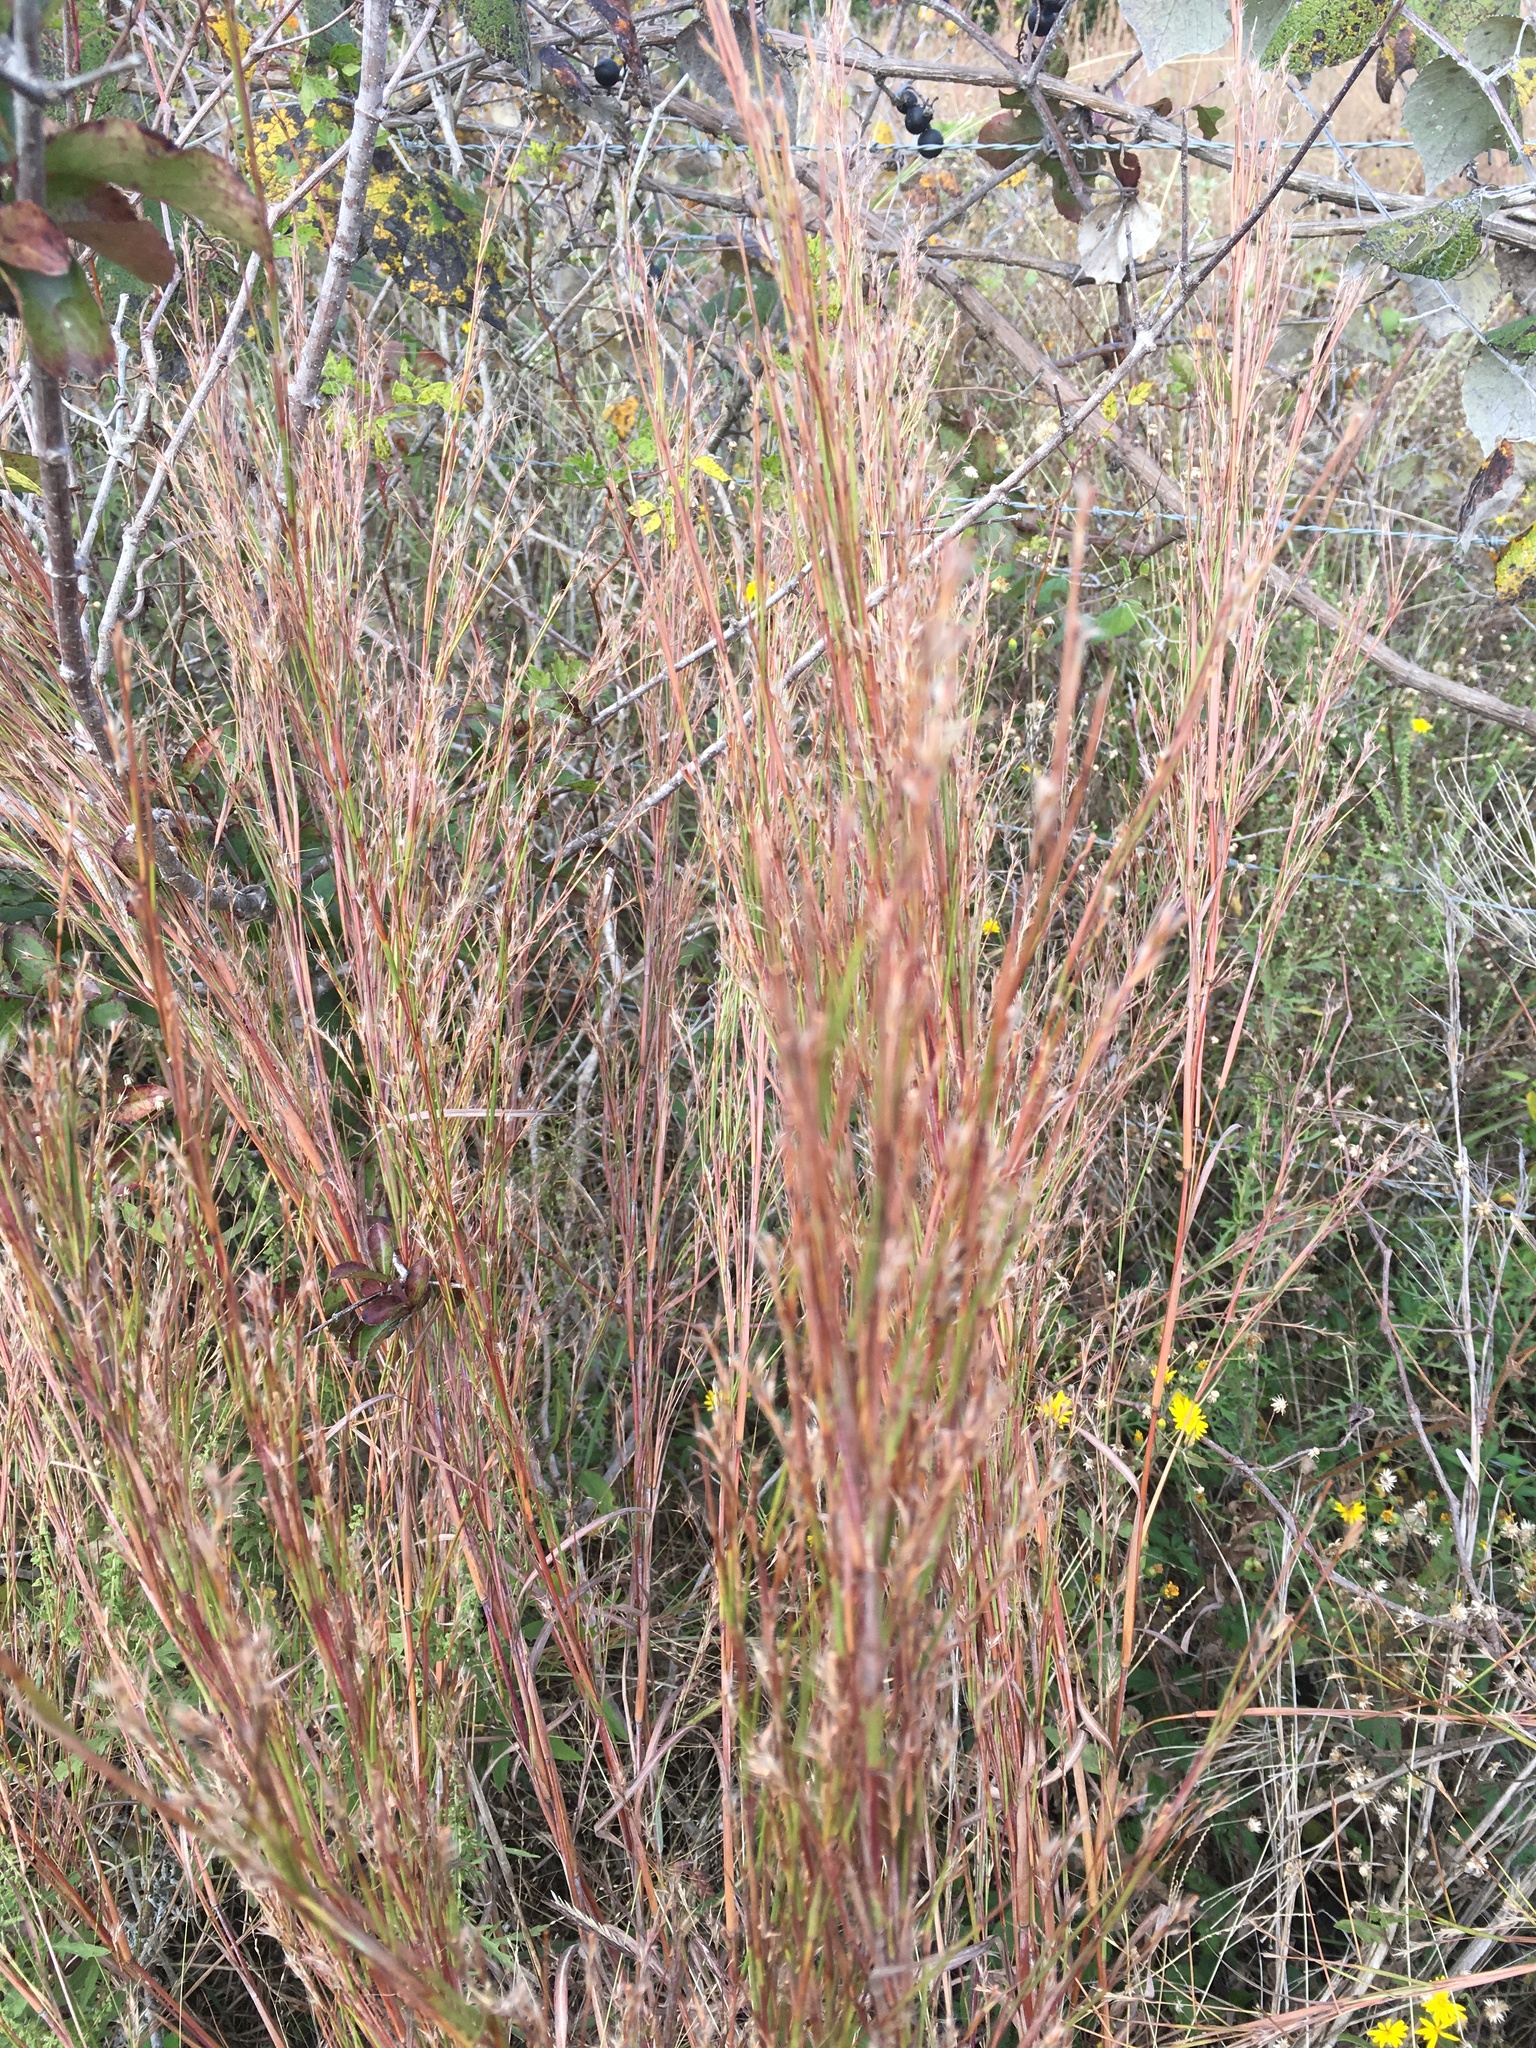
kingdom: Plantae
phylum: Tracheophyta
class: Liliopsida
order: Poales
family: Poaceae
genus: Schizachyrium
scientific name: Schizachyrium scoparium
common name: Little bluestem
